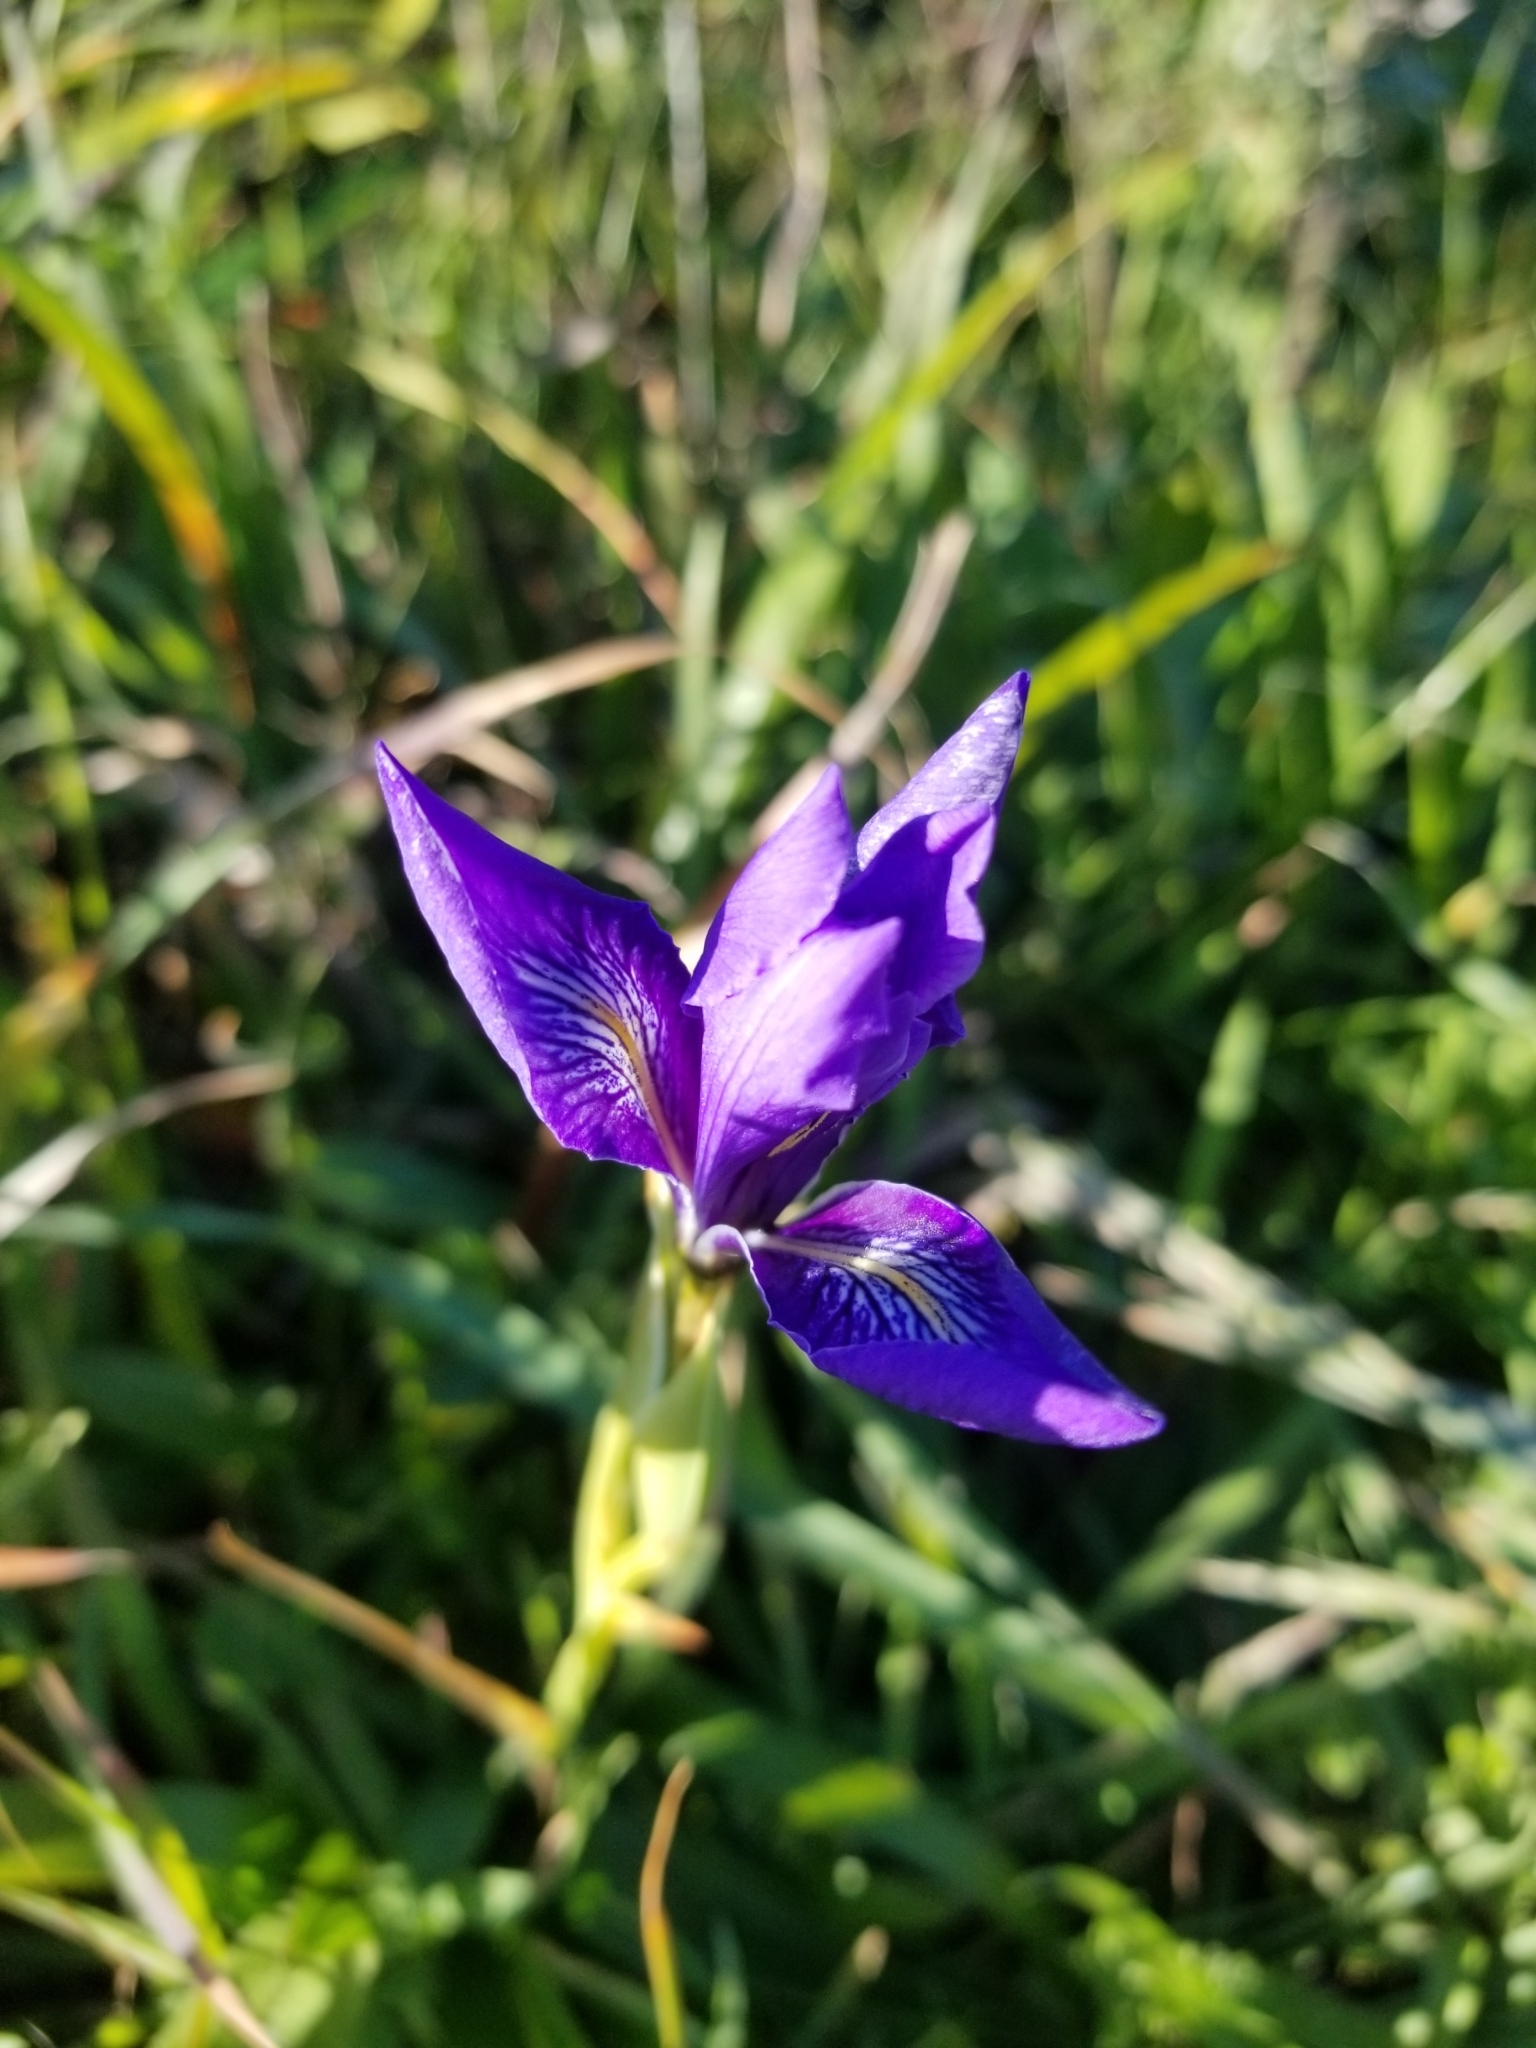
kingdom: Plantae
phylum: Tracheophyta
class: Liliopsida
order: Asparagales
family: Iridaceae
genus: Iris
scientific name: Iris douglasiana
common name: Marin iris
